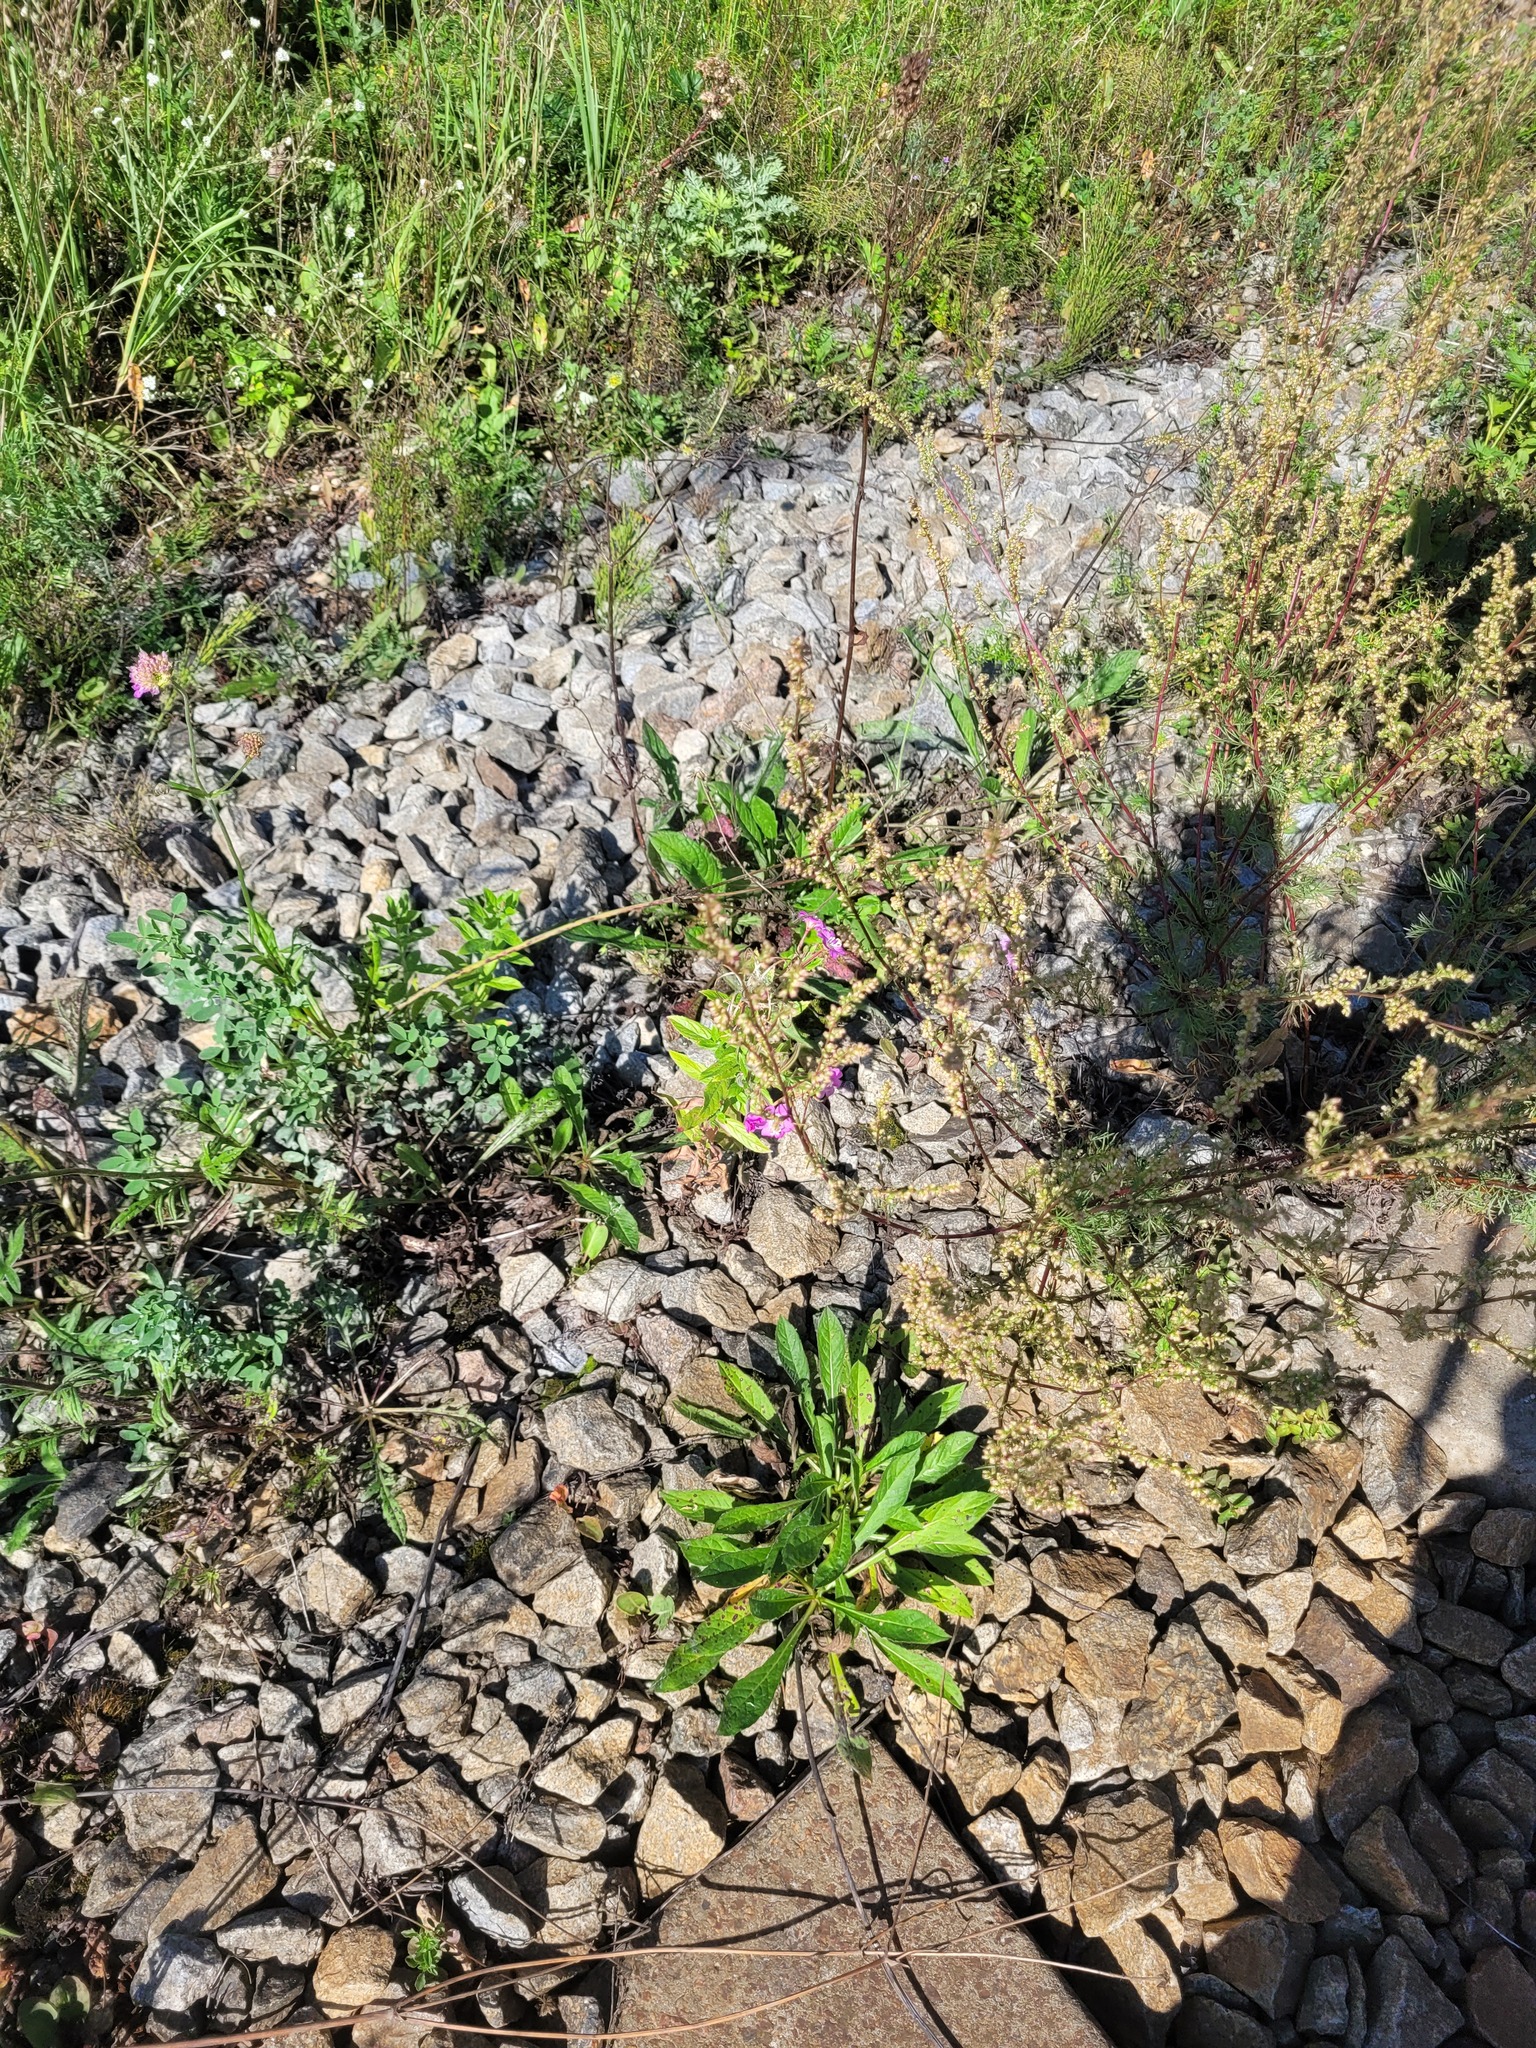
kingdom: Plantae
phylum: Tracheophyta
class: Magnoliopsida
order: Myrtales
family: Onagraceae
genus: Epilobium
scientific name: Epilobium hirsutum
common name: Great willowherb
